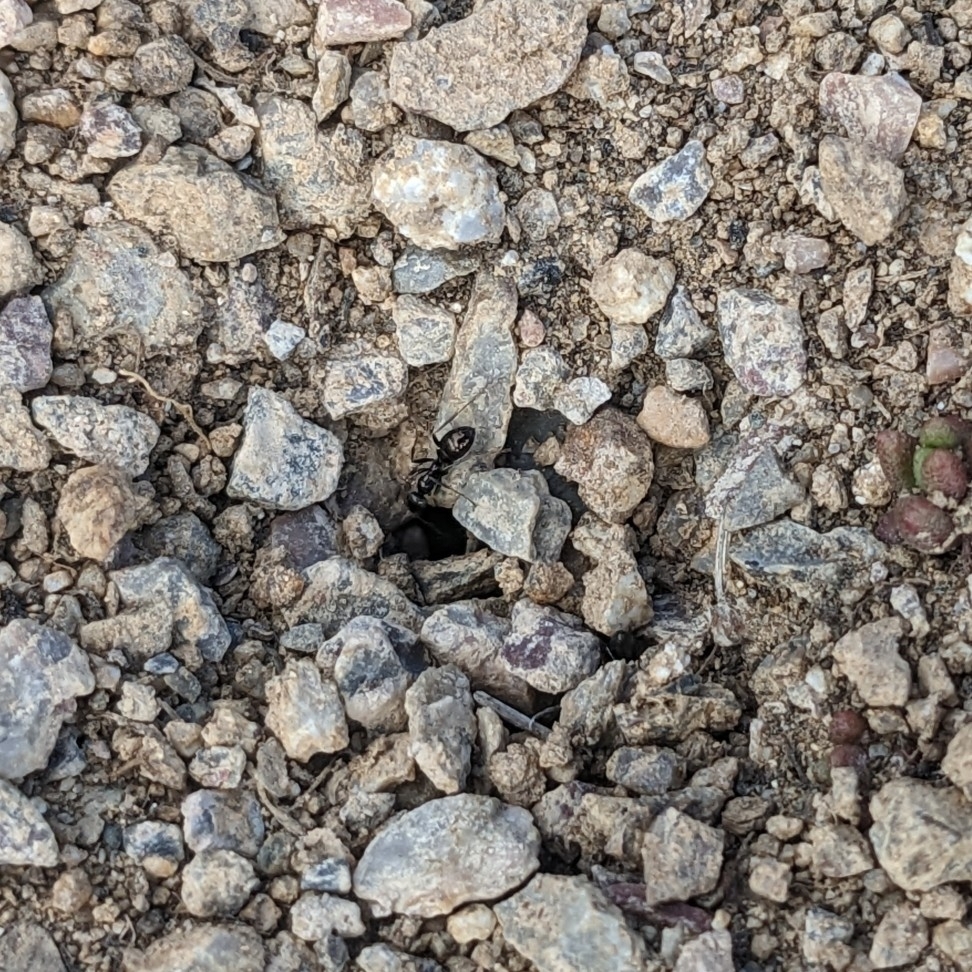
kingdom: Animalia
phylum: Arthropoda
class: Insecta
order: Hymenoptera
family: Formicidae
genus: Proformica
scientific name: Proformica cerdanyensis
